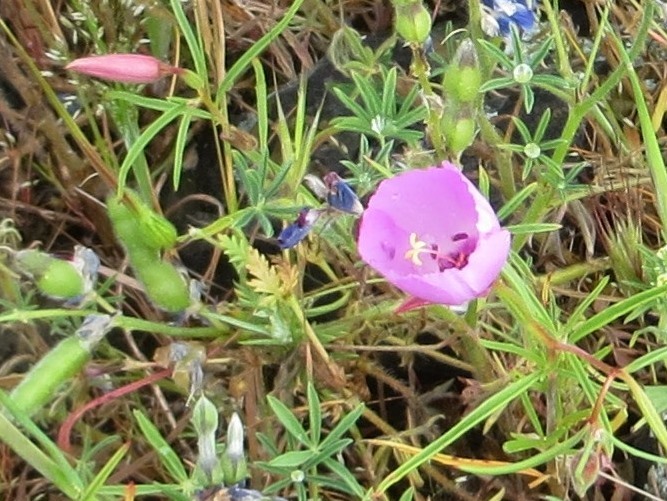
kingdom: Plantae
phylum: Tracheophyta
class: Magnoliopsida
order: Myrtales
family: Onagraceae
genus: Clarkia
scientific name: Clarkia arcuata
